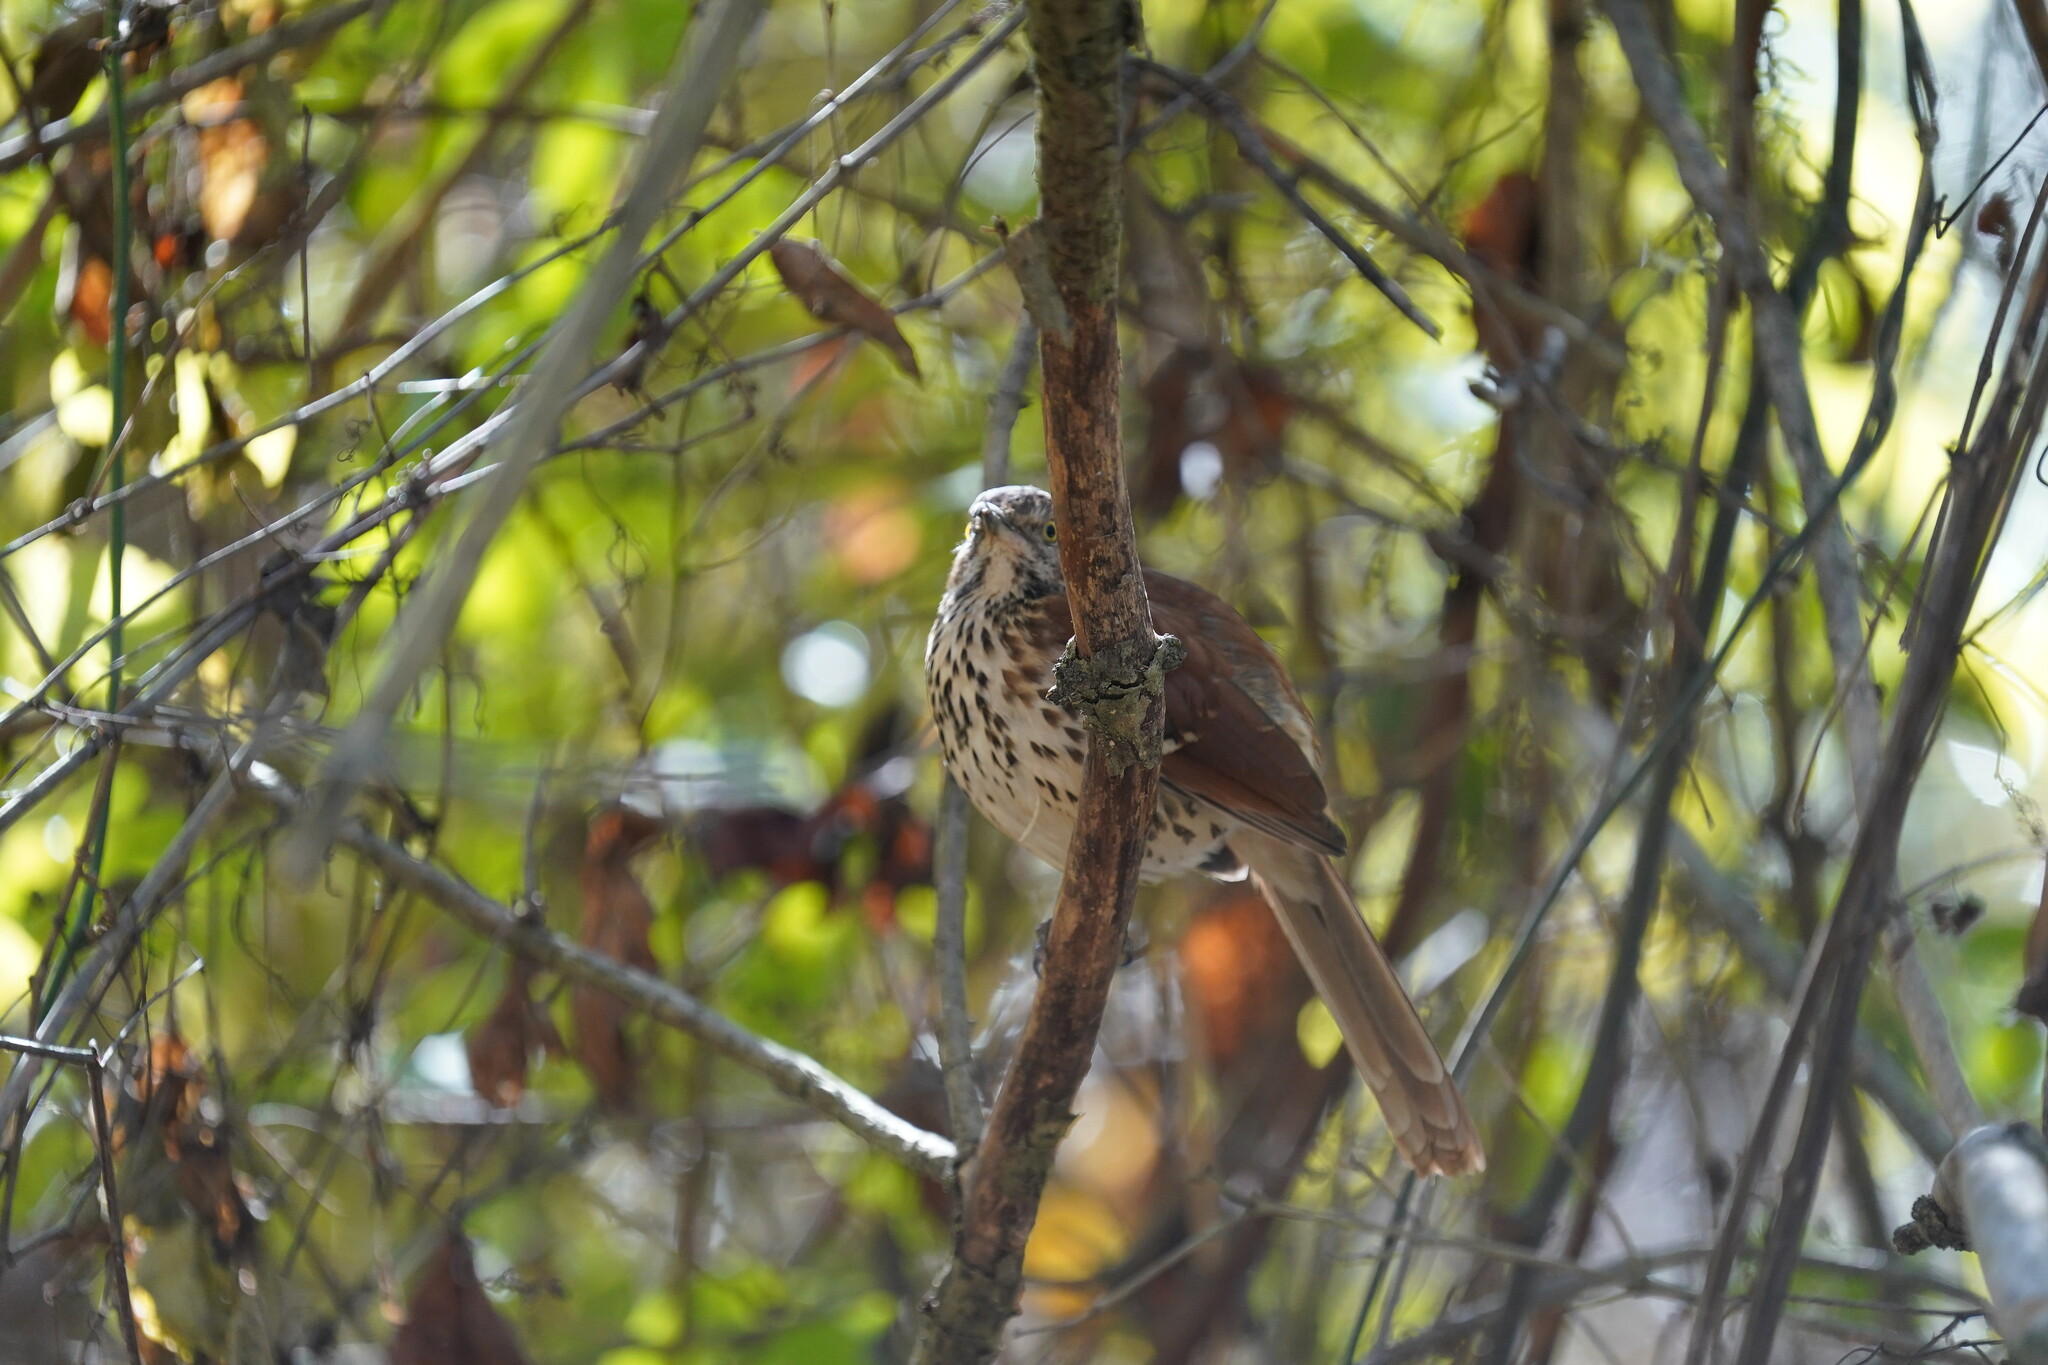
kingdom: Animalia
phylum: Chordata
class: Aves
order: Passeriformes
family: Mimidae
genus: Toxostoma
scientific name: Toxostoma rufum
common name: Brown thrasher
